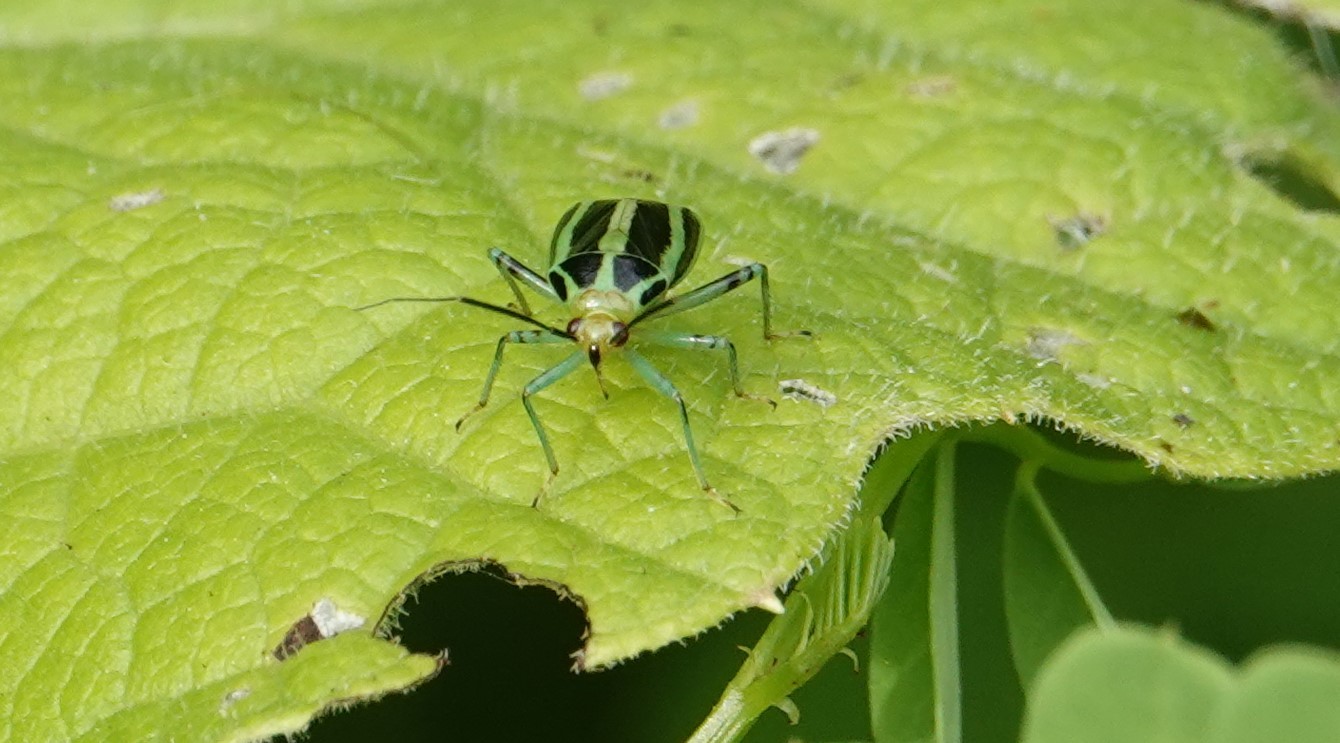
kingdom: Animalia
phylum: Arthropoda
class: Insecta
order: Hemiptera
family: Miridae
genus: Poecilocapsus
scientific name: Poecilocapsus lineatus
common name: Four-lined plant bug
